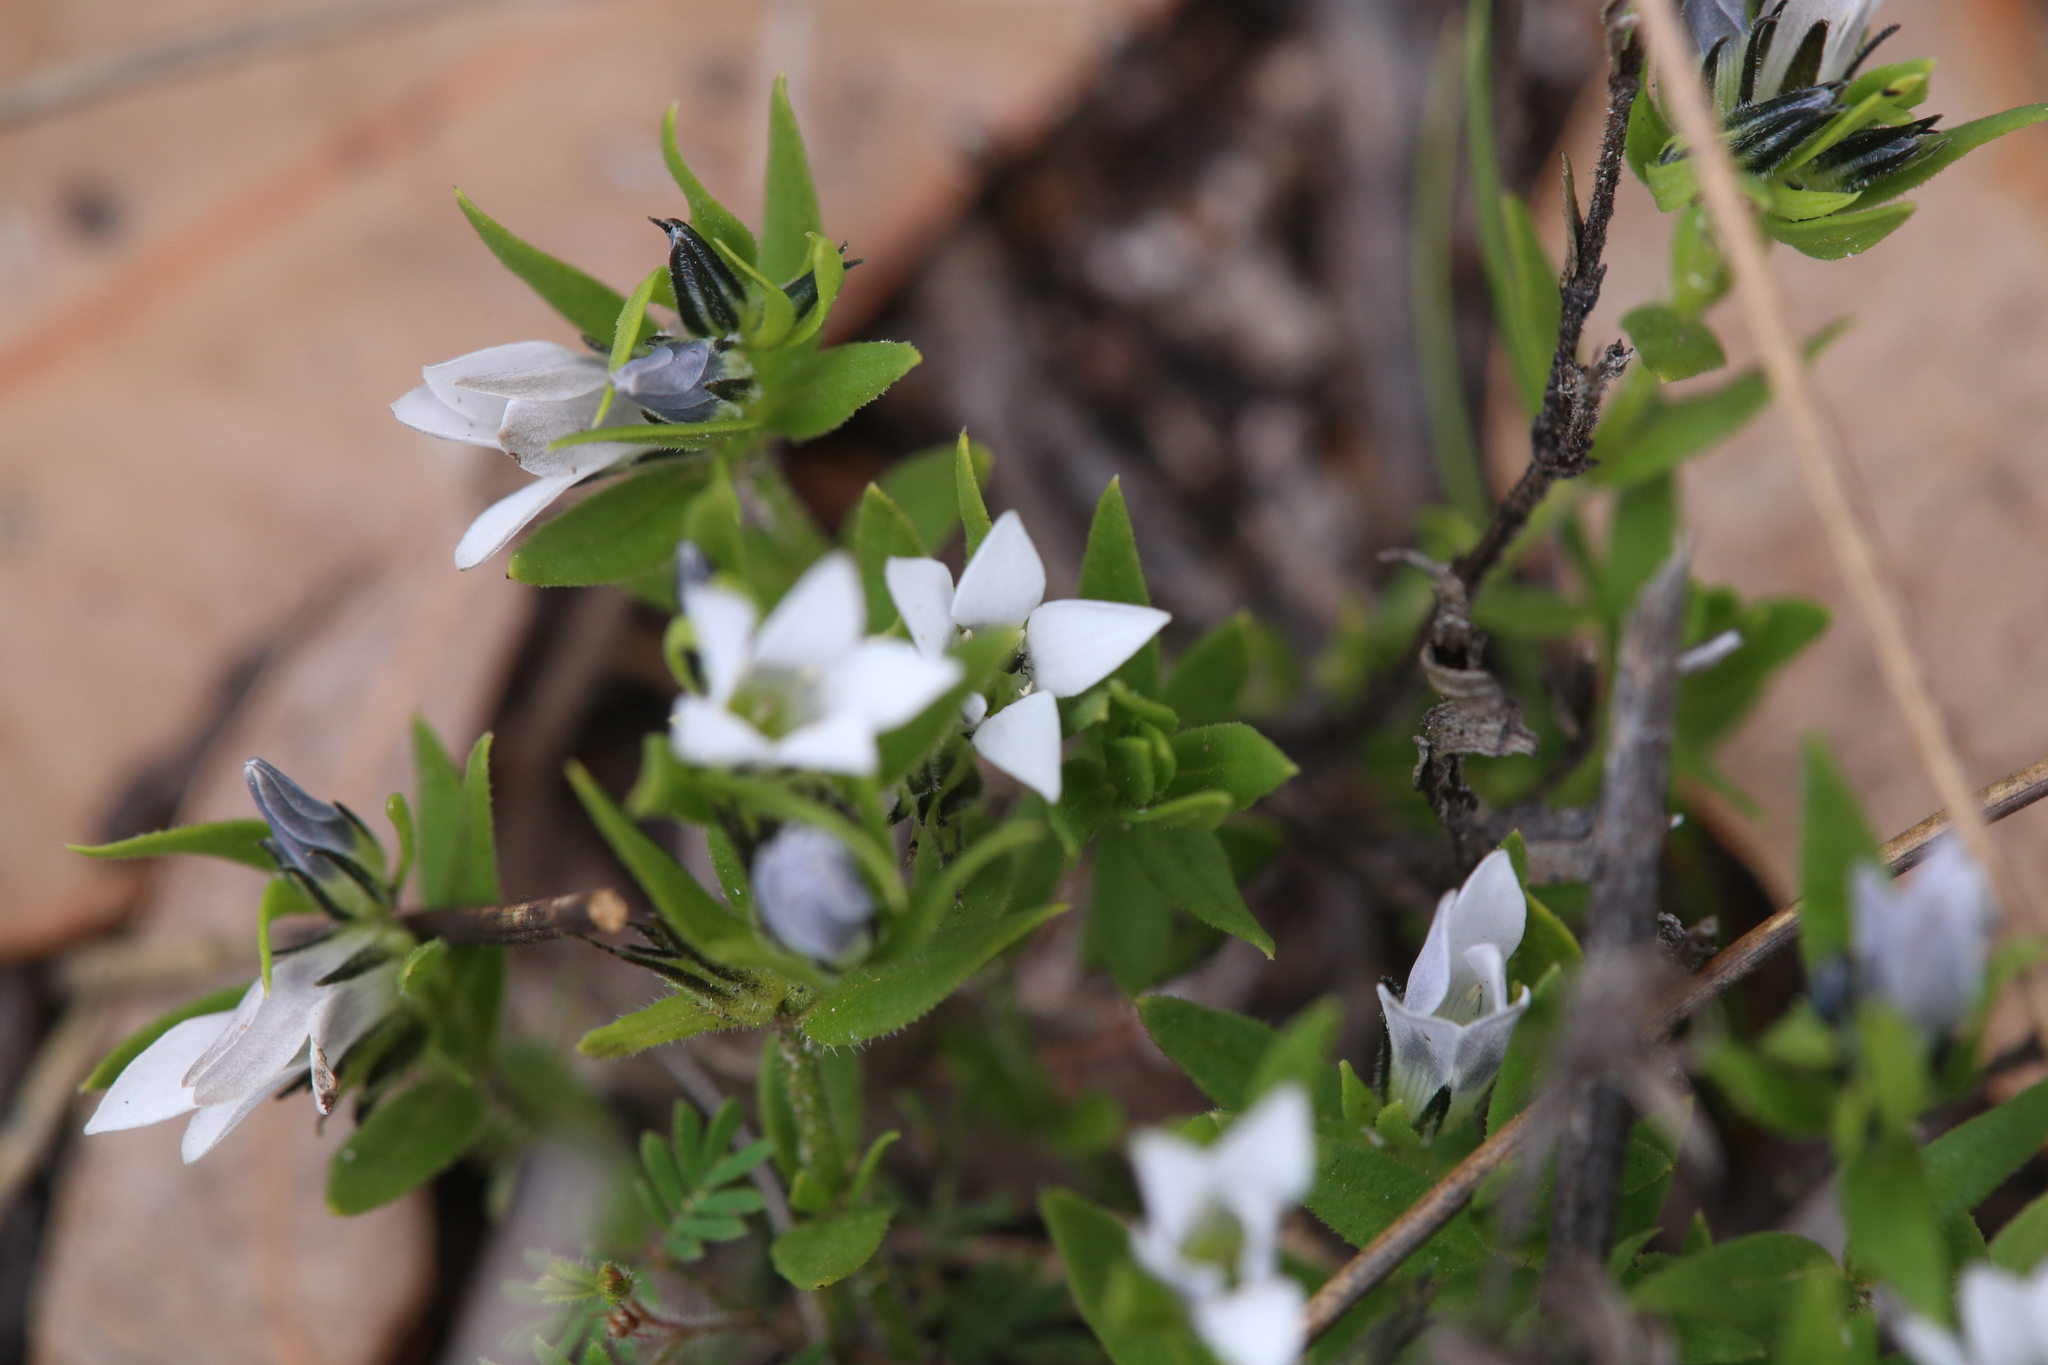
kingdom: Plantae
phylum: Tracheophyta
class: Magnoliopsida
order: Gentianales
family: Loganiaceae
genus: Orianthera
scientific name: Orianthera serpyllifolia
